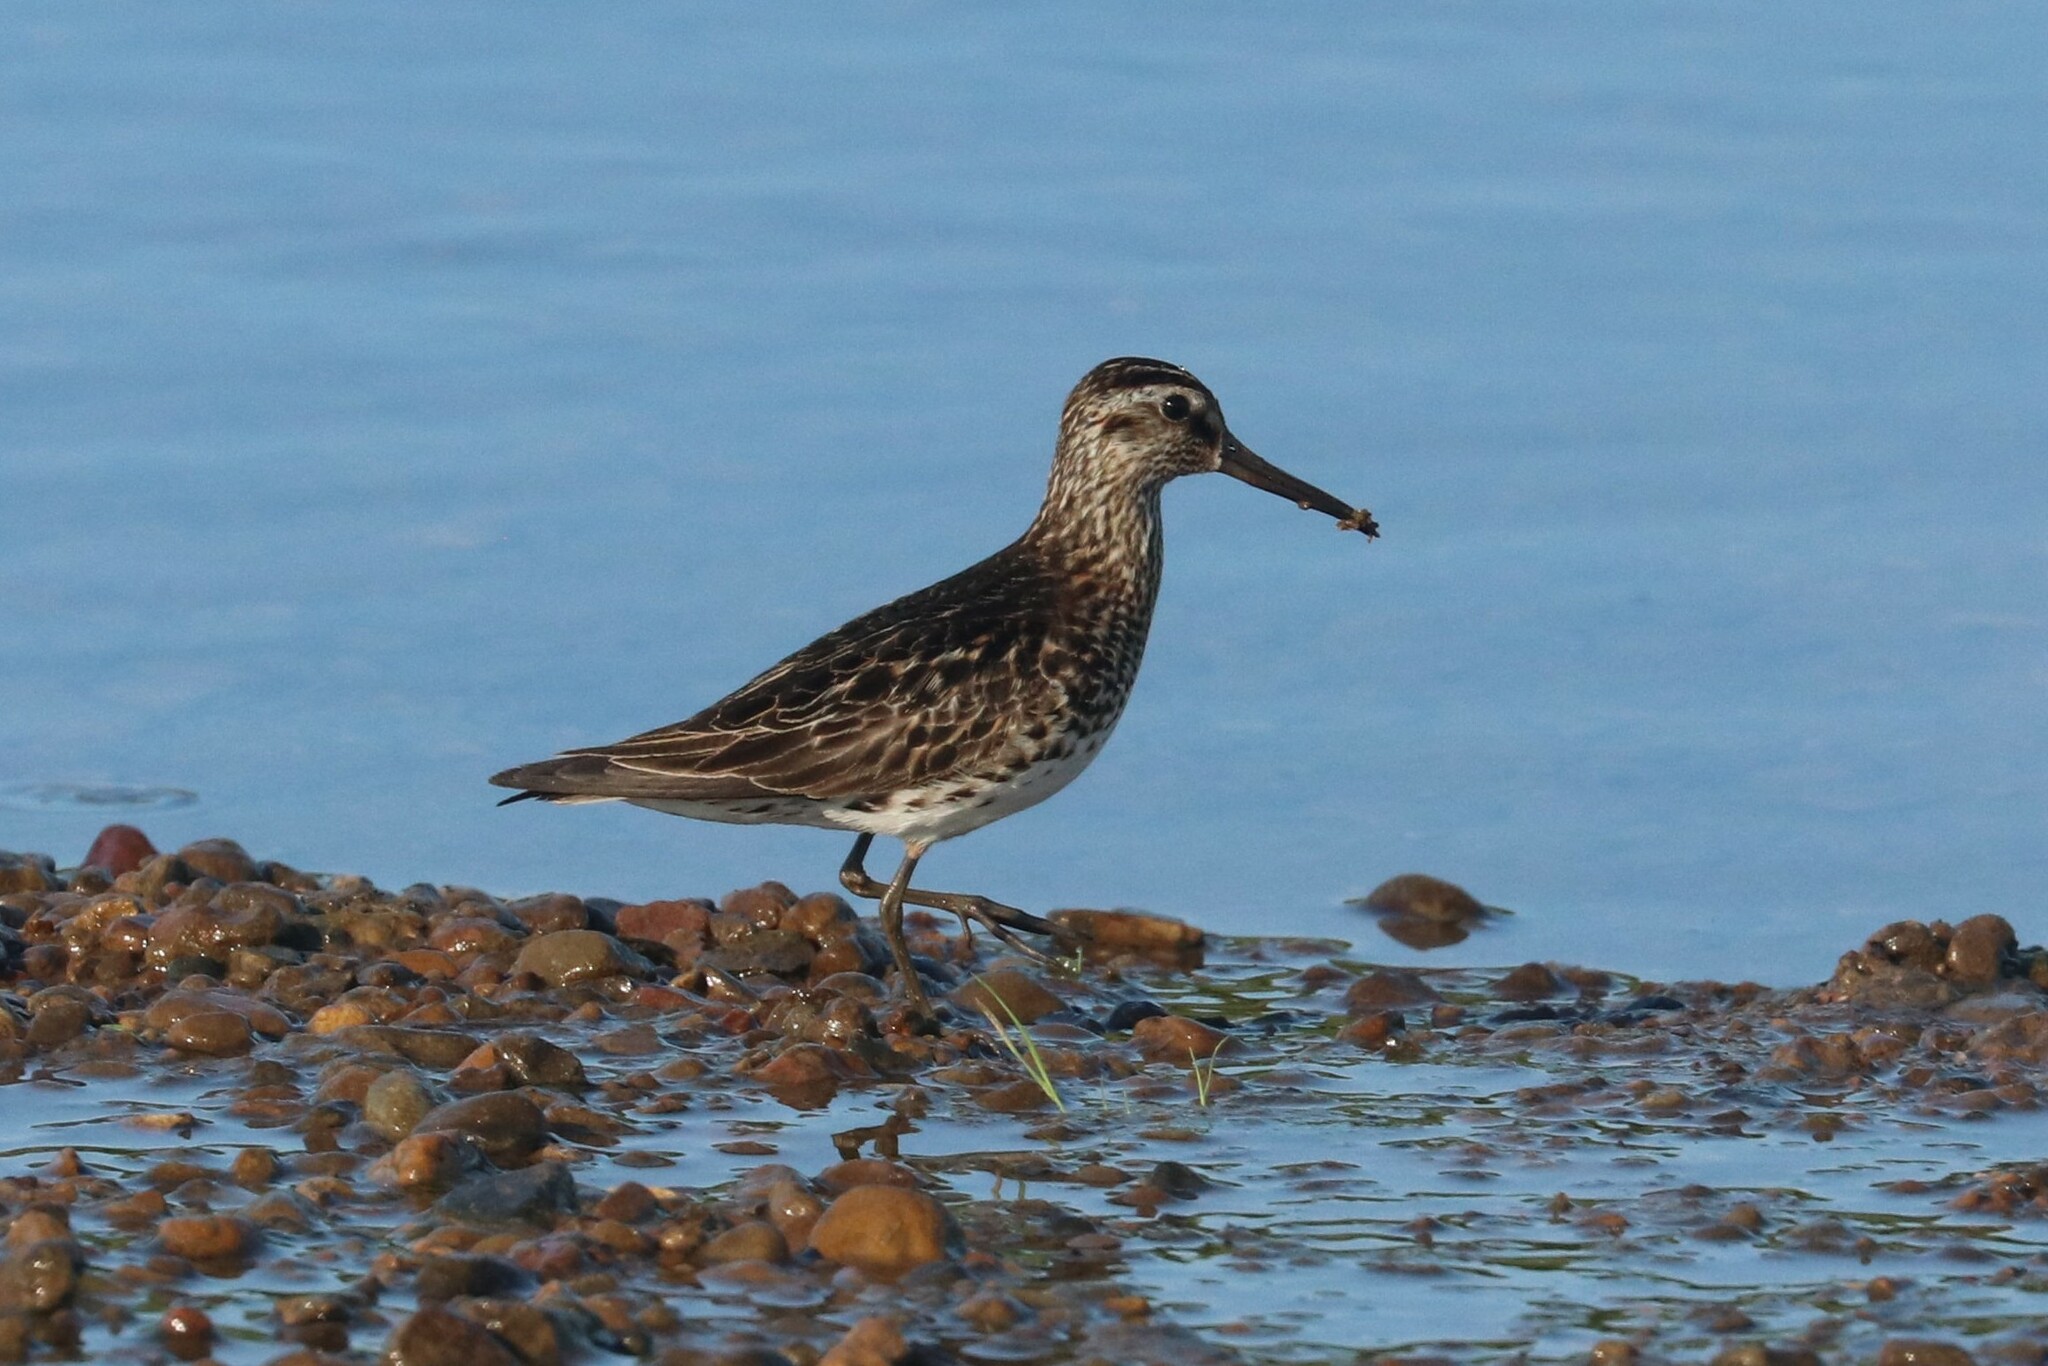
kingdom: Animalia
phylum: Chordata
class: Aves
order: Charadriiformes
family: Scolopacidae
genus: Calidris
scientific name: Calidris falcinellus
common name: Broad-billed sandpiper
